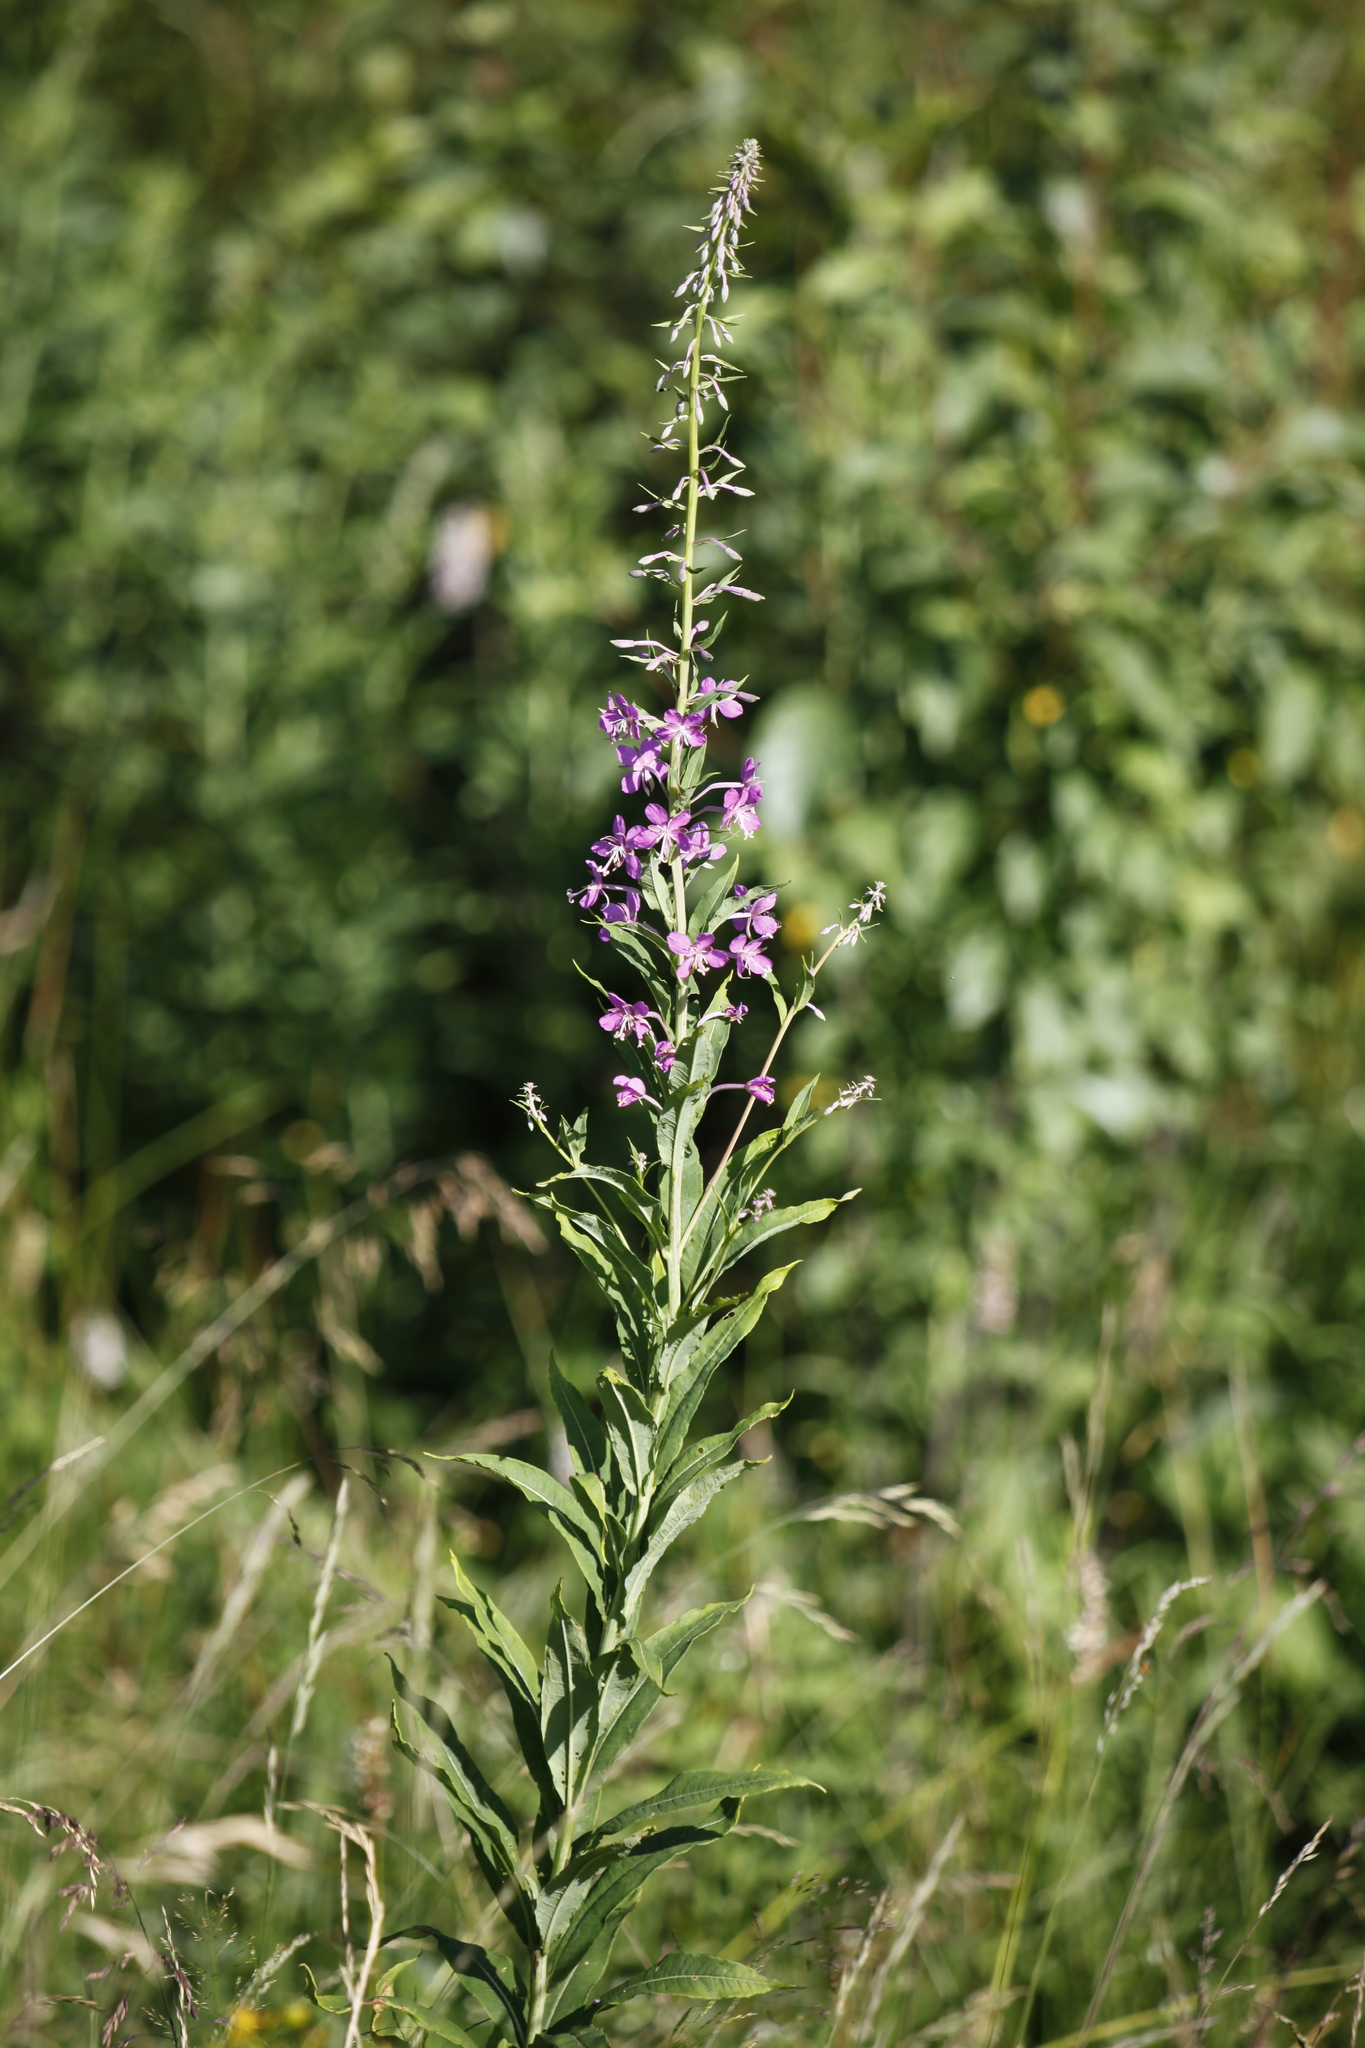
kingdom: Plantae
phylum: Tracheophyta
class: Magnoliopsida
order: Myrtales
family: Onagraceae
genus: Chamaenerion
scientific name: Chamaenerion angustifolium
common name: Fireweed
